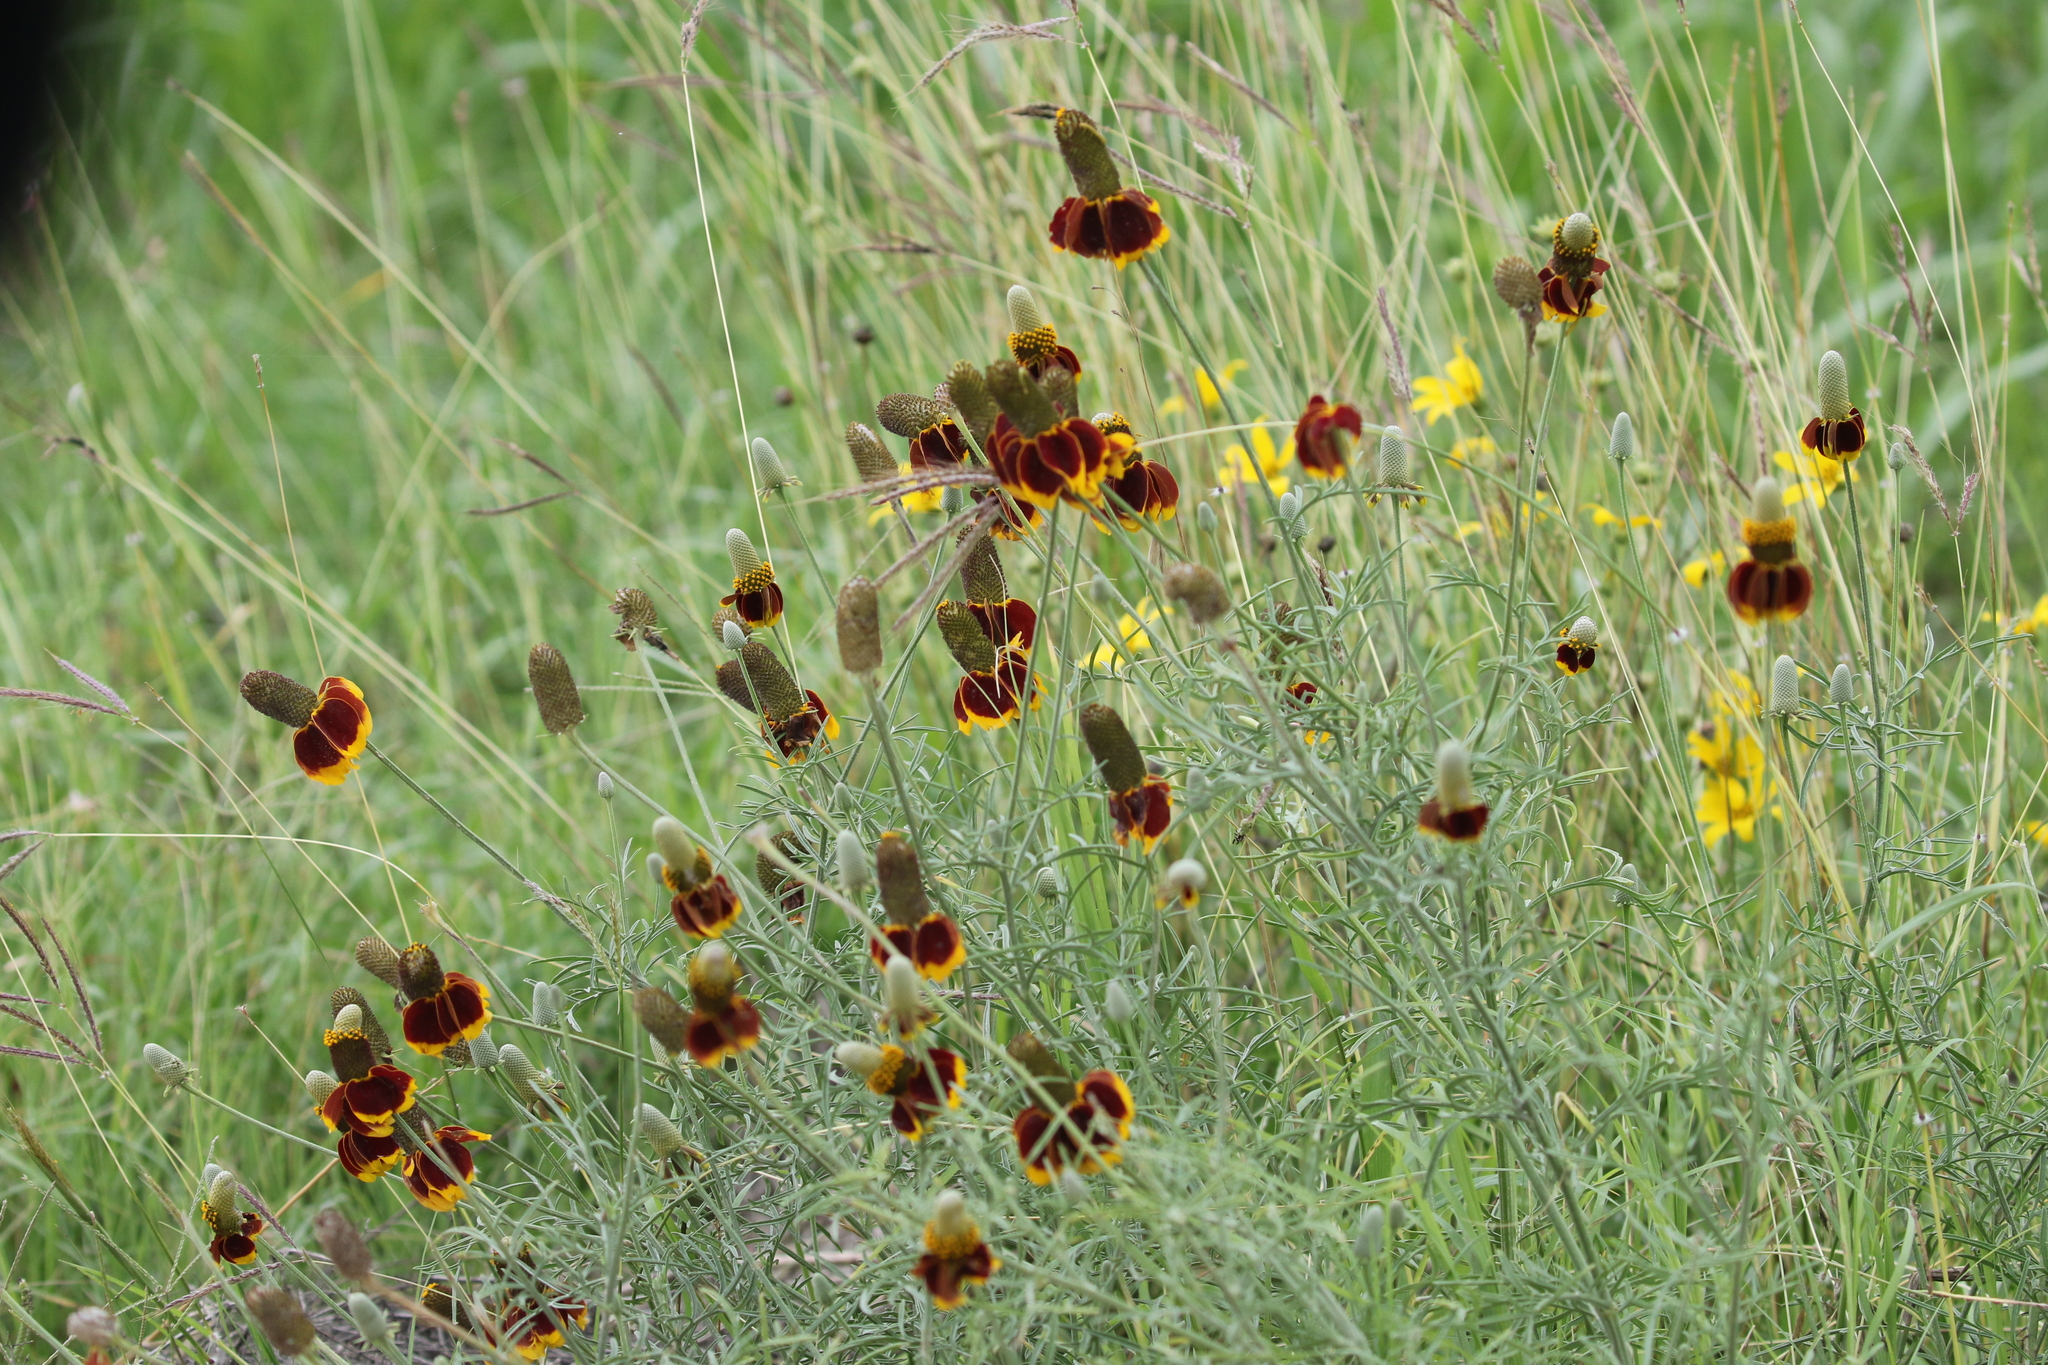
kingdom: Plantae
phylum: Tracheophyta
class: Magnoliopsida
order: Asterales
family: Asteraceae
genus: Ratibida
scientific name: Ratibida columnifera
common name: Prairie coneflower
